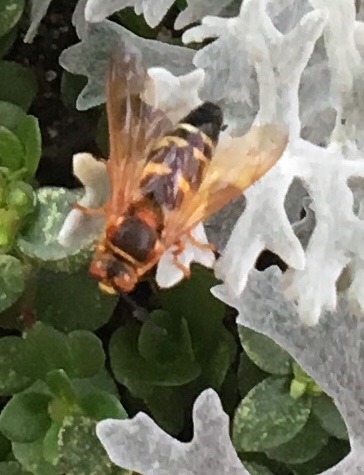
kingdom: Animalia
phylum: Arthropoda
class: Insecta
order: Hymenoptera
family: Crabronidae
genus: Sphecius
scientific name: Sphecius speciosus
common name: Cicada killer
